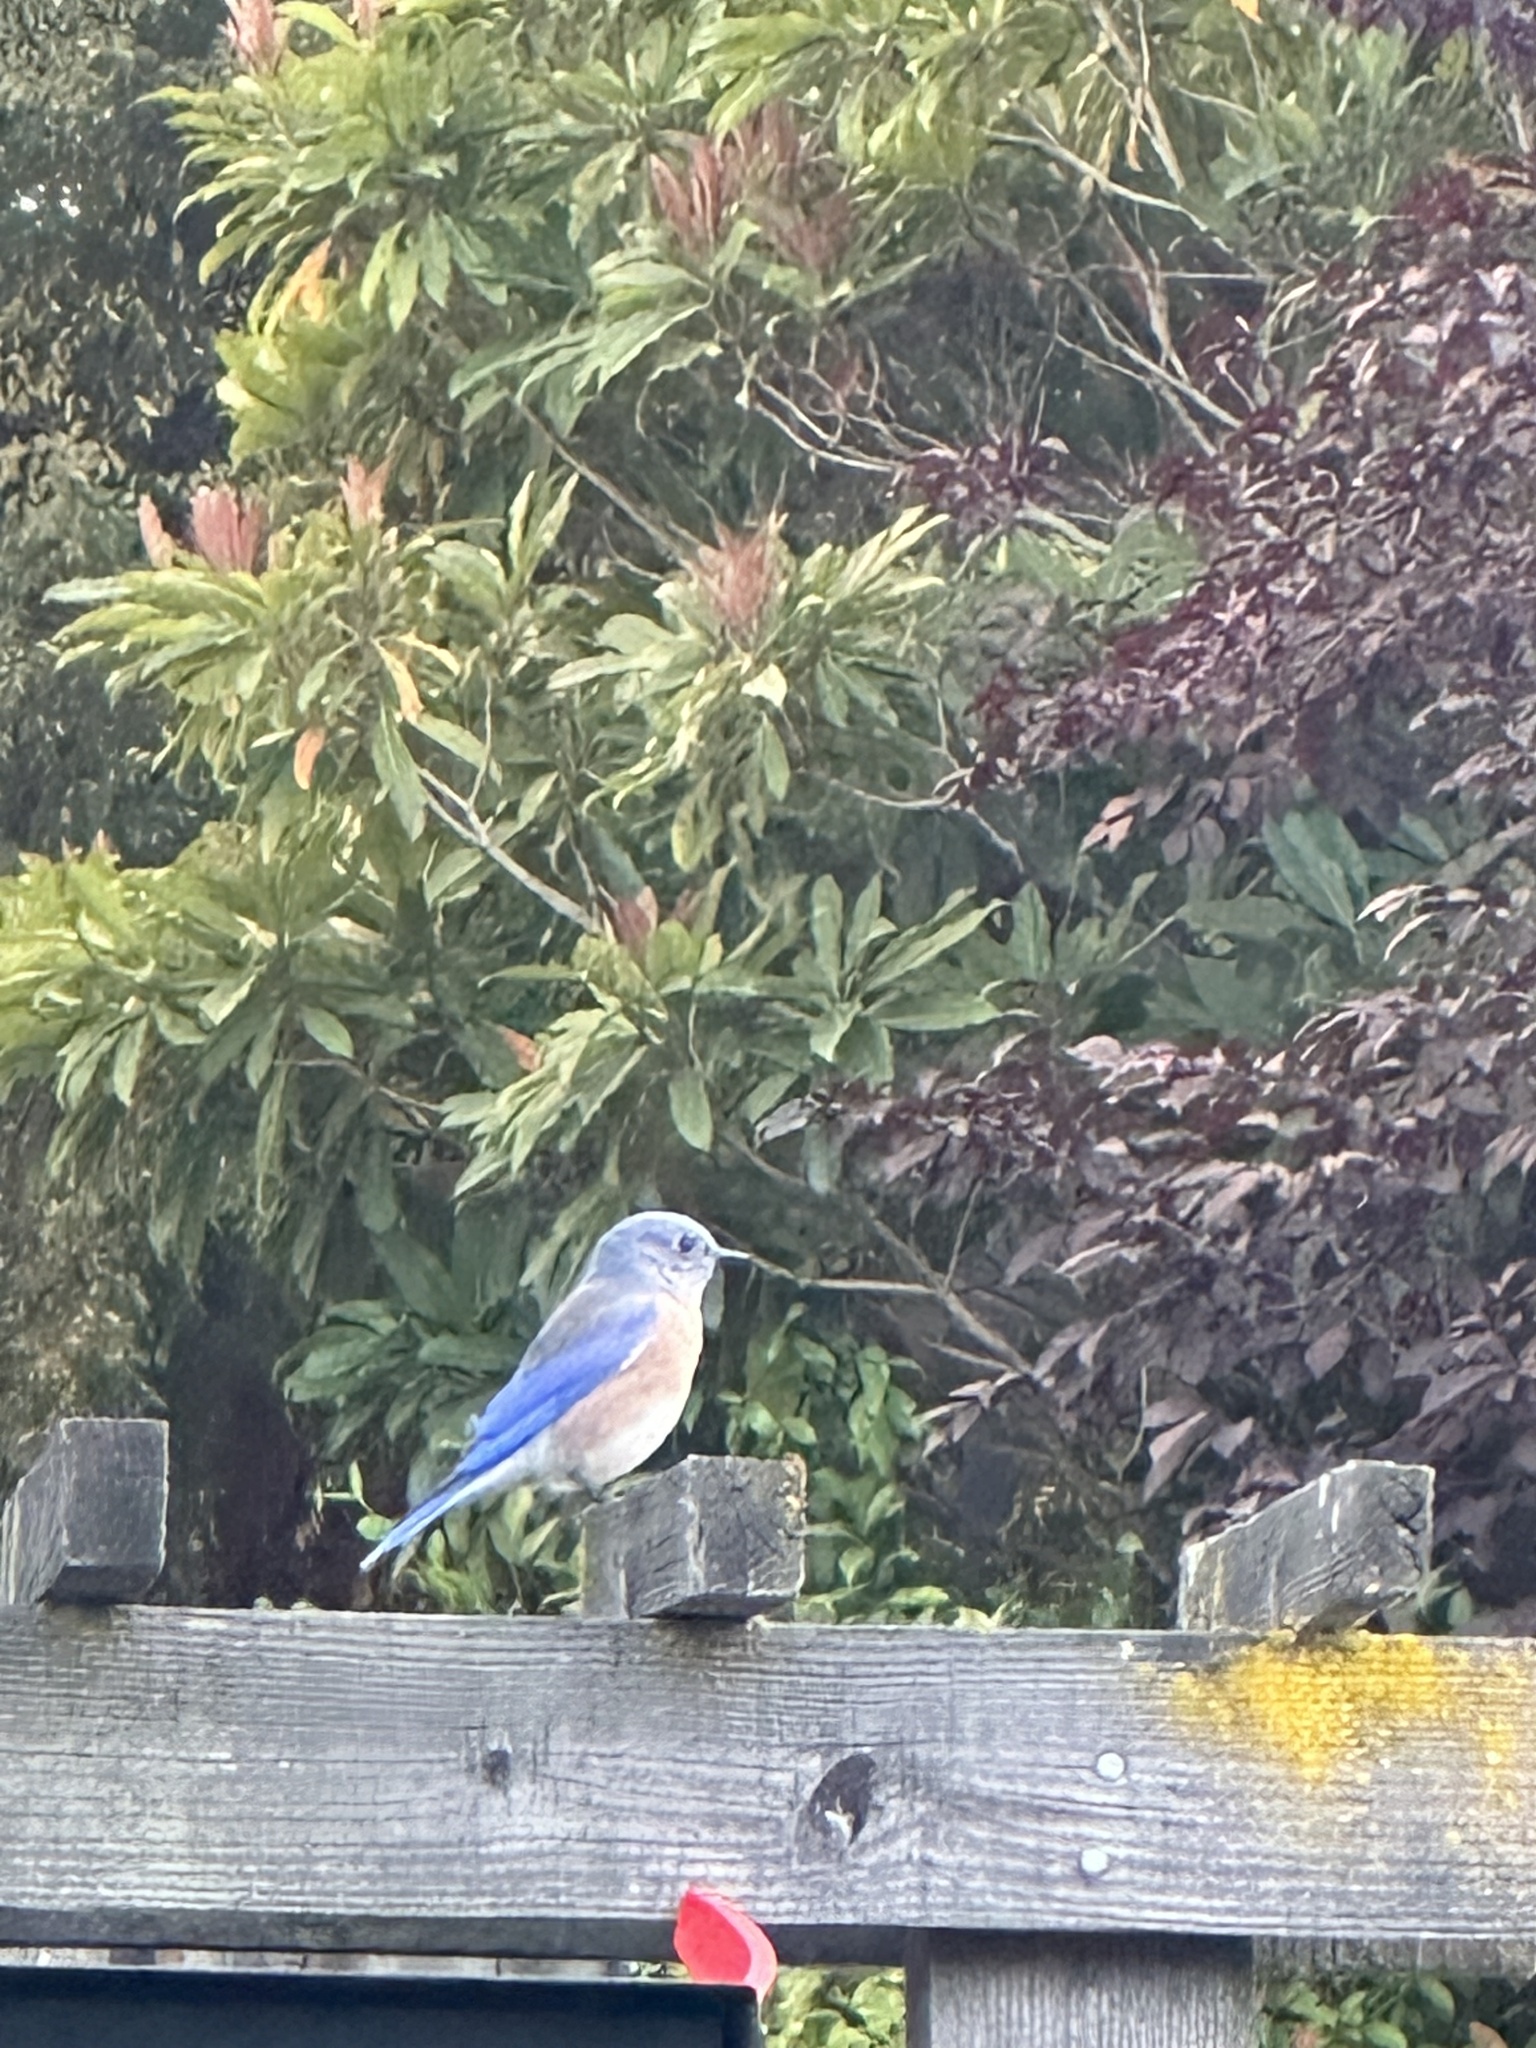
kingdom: Animalia
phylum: Chordata
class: Aves
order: Passeriformes
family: Turdidae
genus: Sialia
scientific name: Sialia mexicana
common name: Western bluebird
